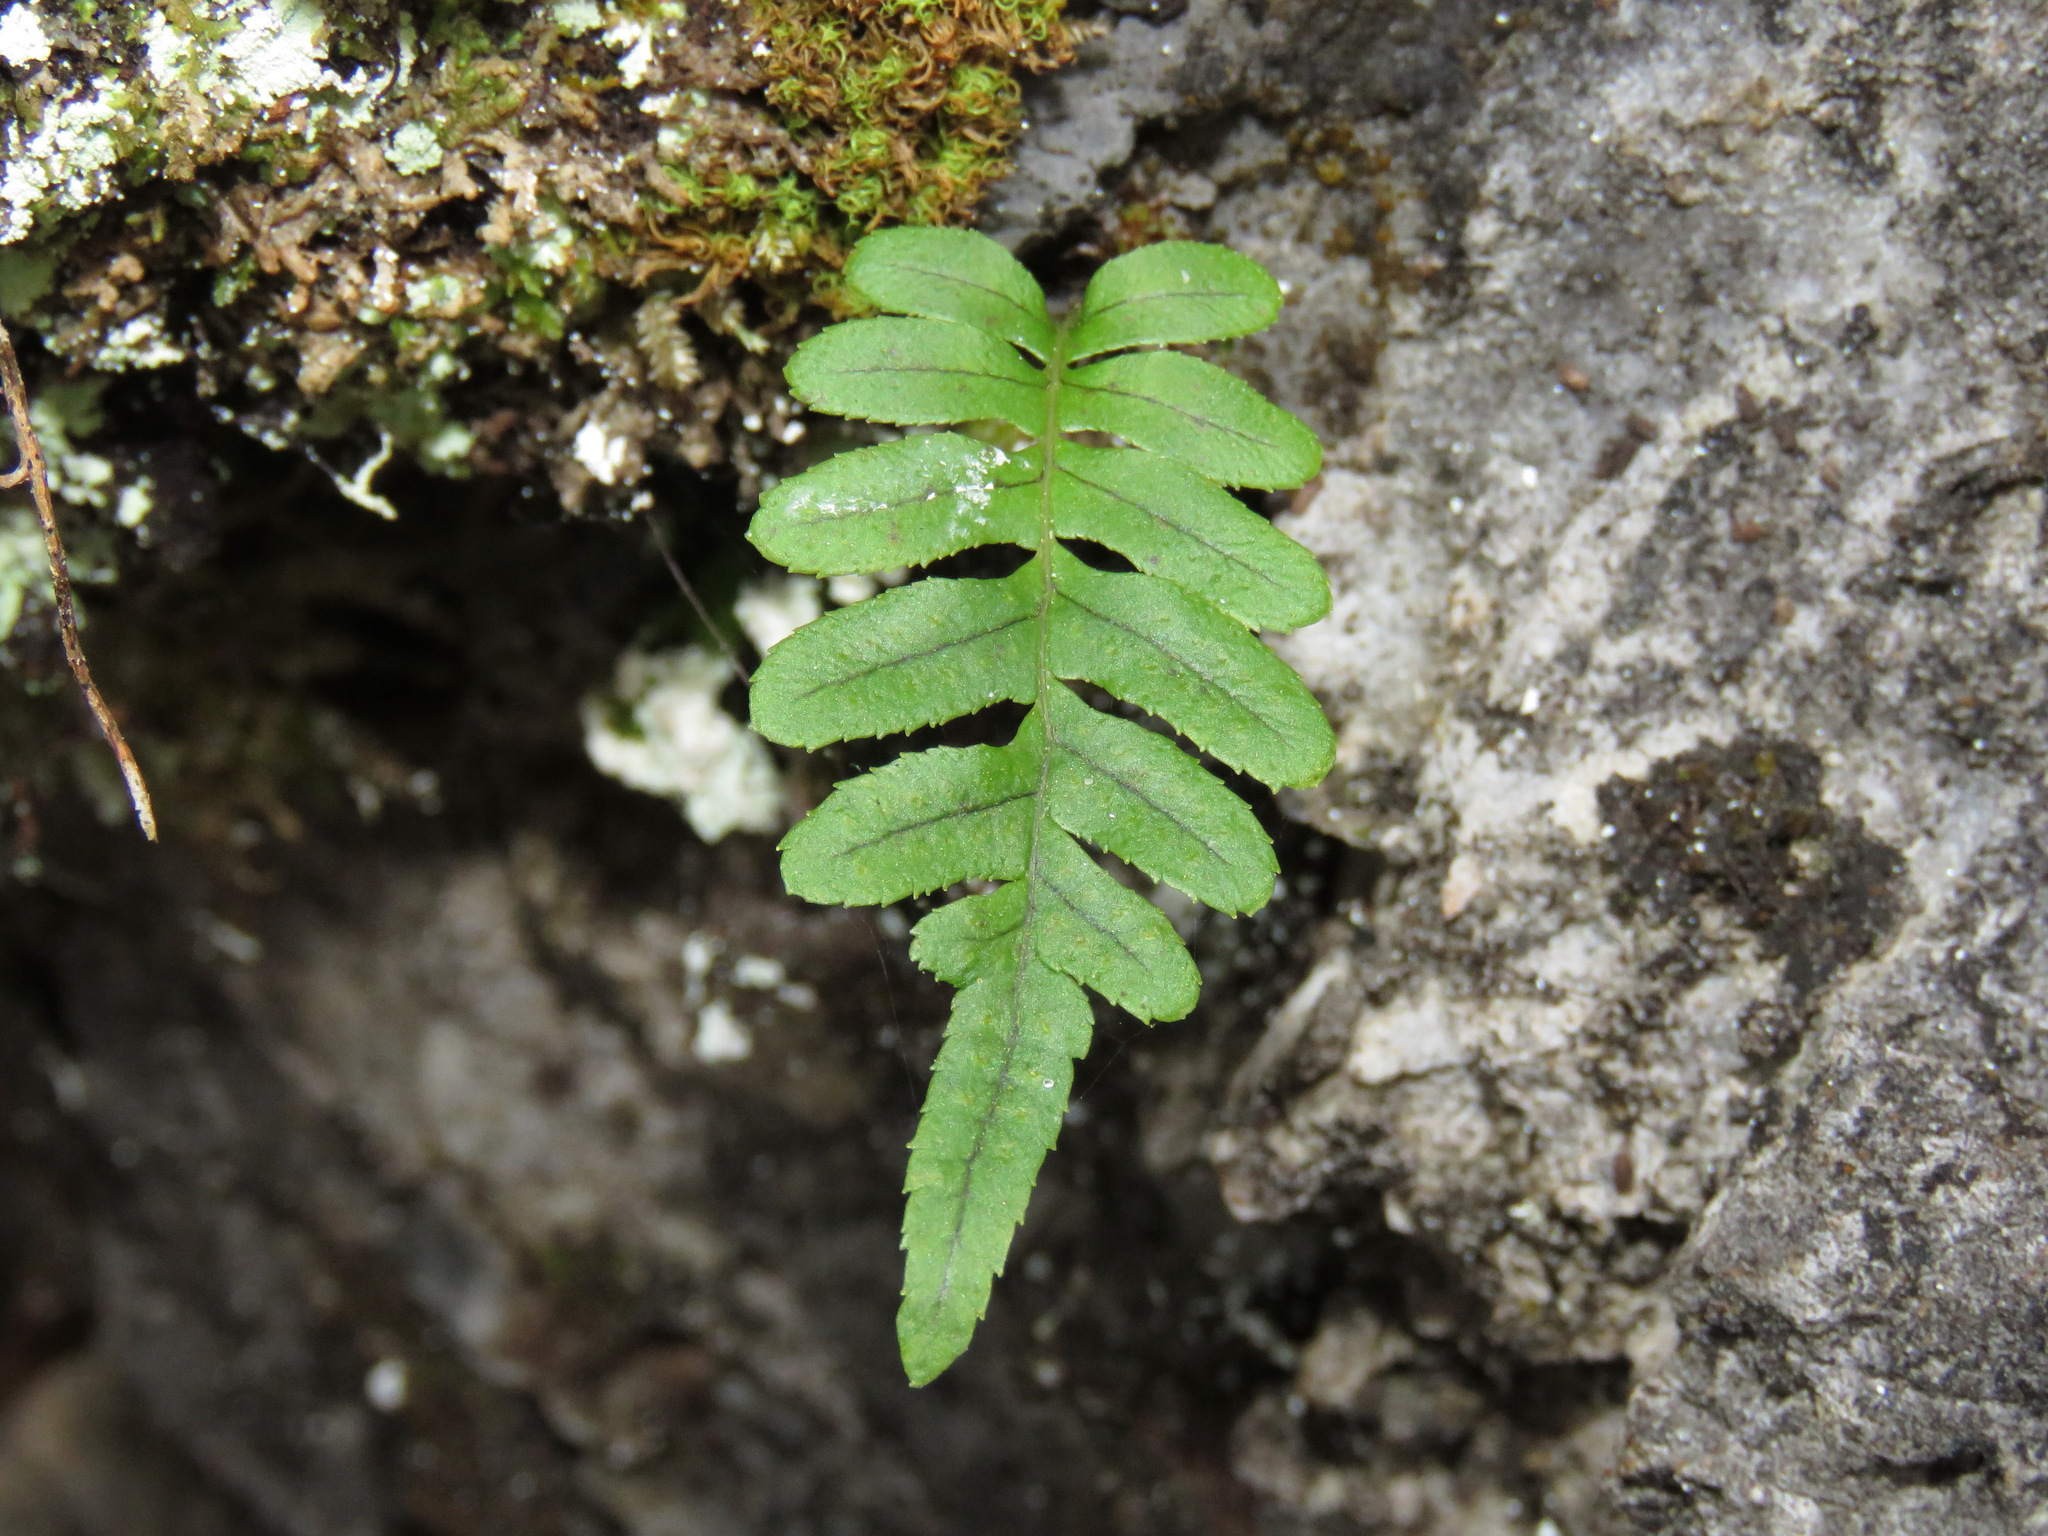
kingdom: Plantae
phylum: Tracheophyta
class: Polypodiopsida
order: Polypodiales
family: Polypodiaceae
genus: Polypodium
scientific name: Polypodium glycyrrhiza
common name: Licorice fern
